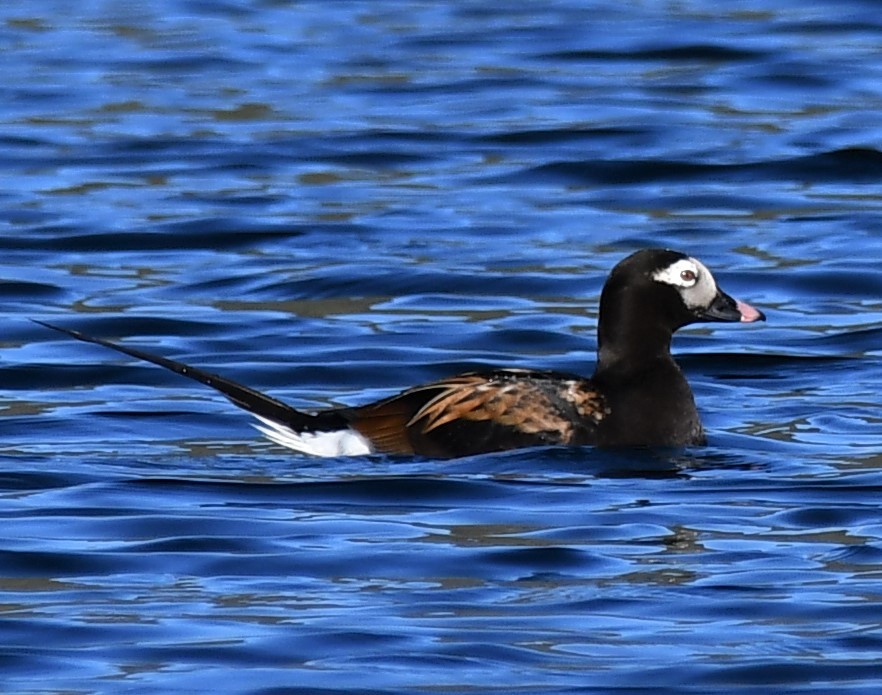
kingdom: Animalia
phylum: Chordata
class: Aves
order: Anseriformes
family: Anatidae
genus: Clangula
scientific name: Clangula hyemalis
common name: Long-tailed duck
